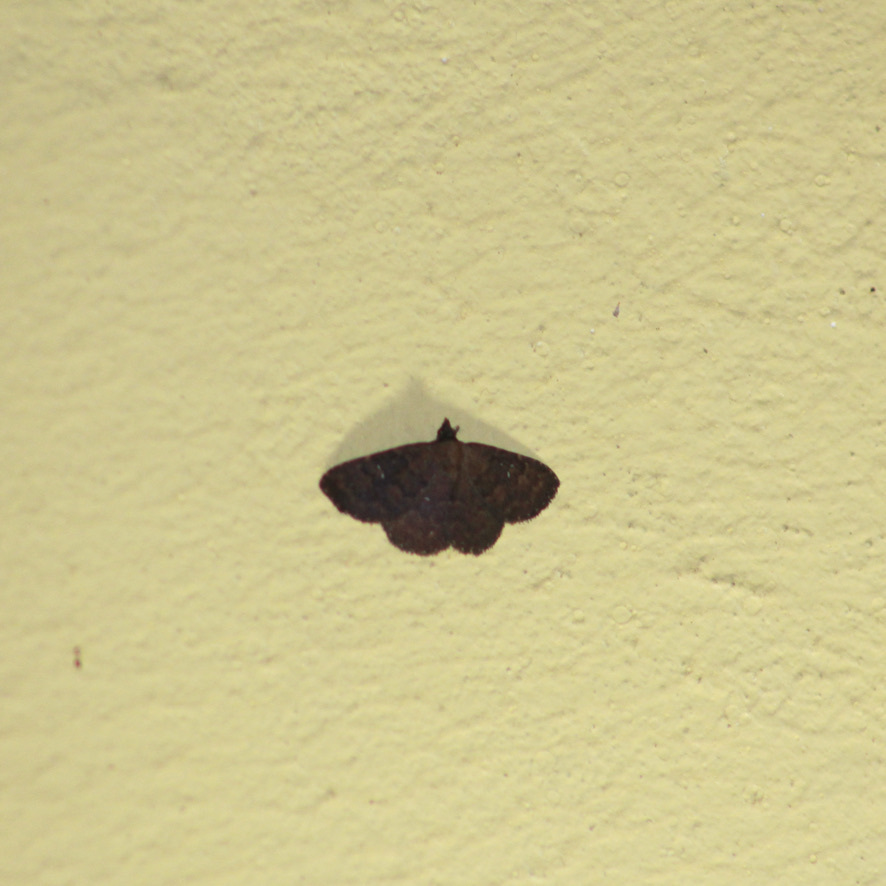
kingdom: Animalia
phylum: Arthropoda
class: Insecta
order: Lepidoptera
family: Erebidae
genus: Ostha
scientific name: Ostha coryphata
